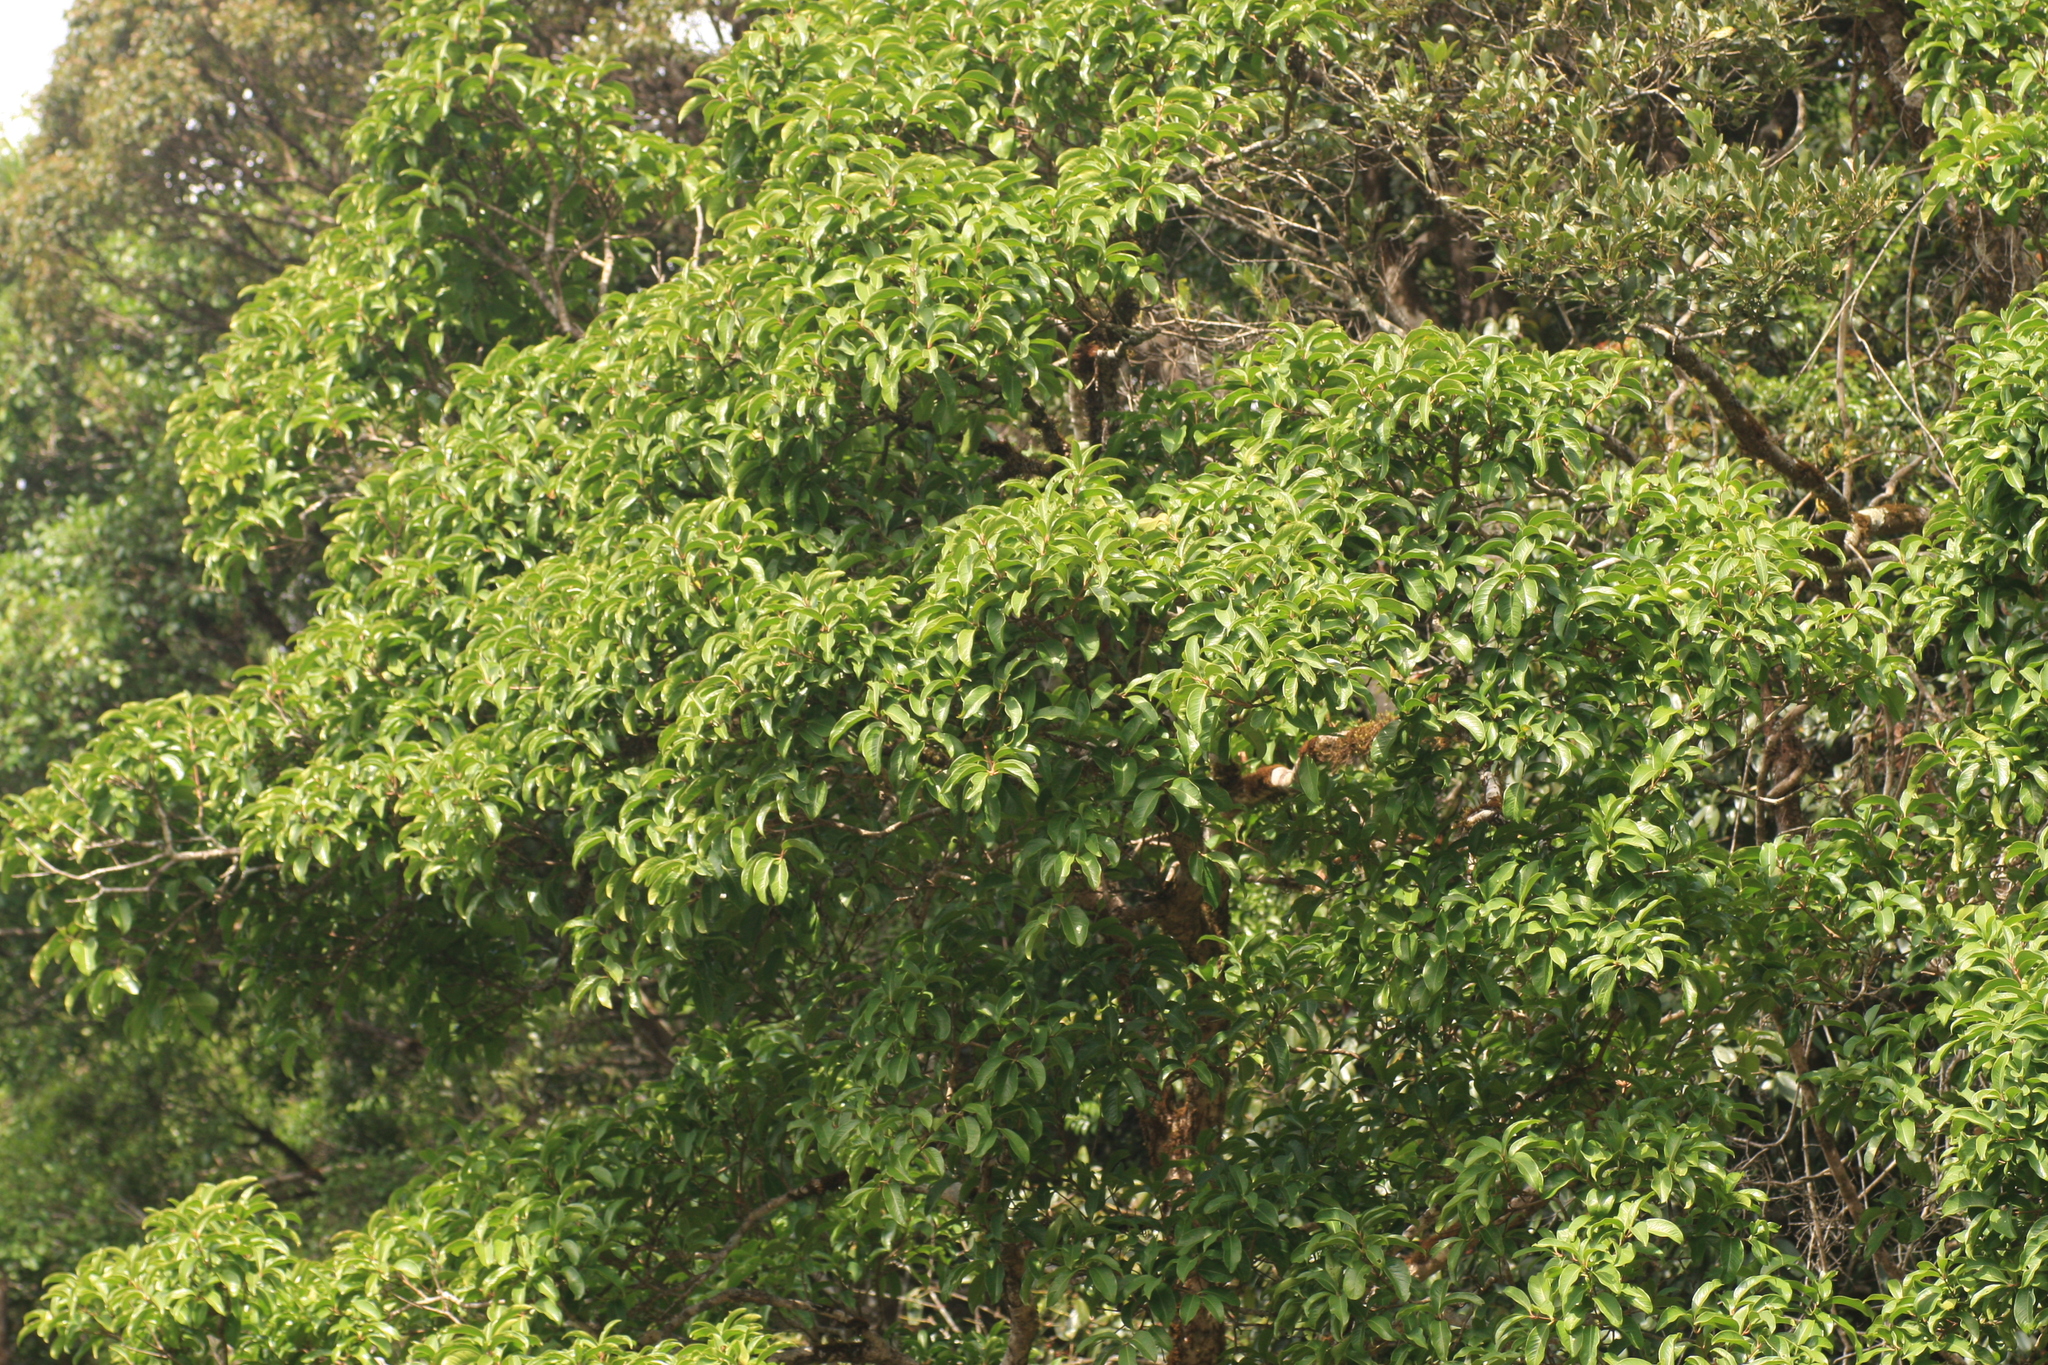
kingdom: Plantae
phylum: Tracheophyta
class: Magnoliopsida
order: Myrtales
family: Myrtaceae
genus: Syzygium
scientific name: Syzygium hemisphericum
